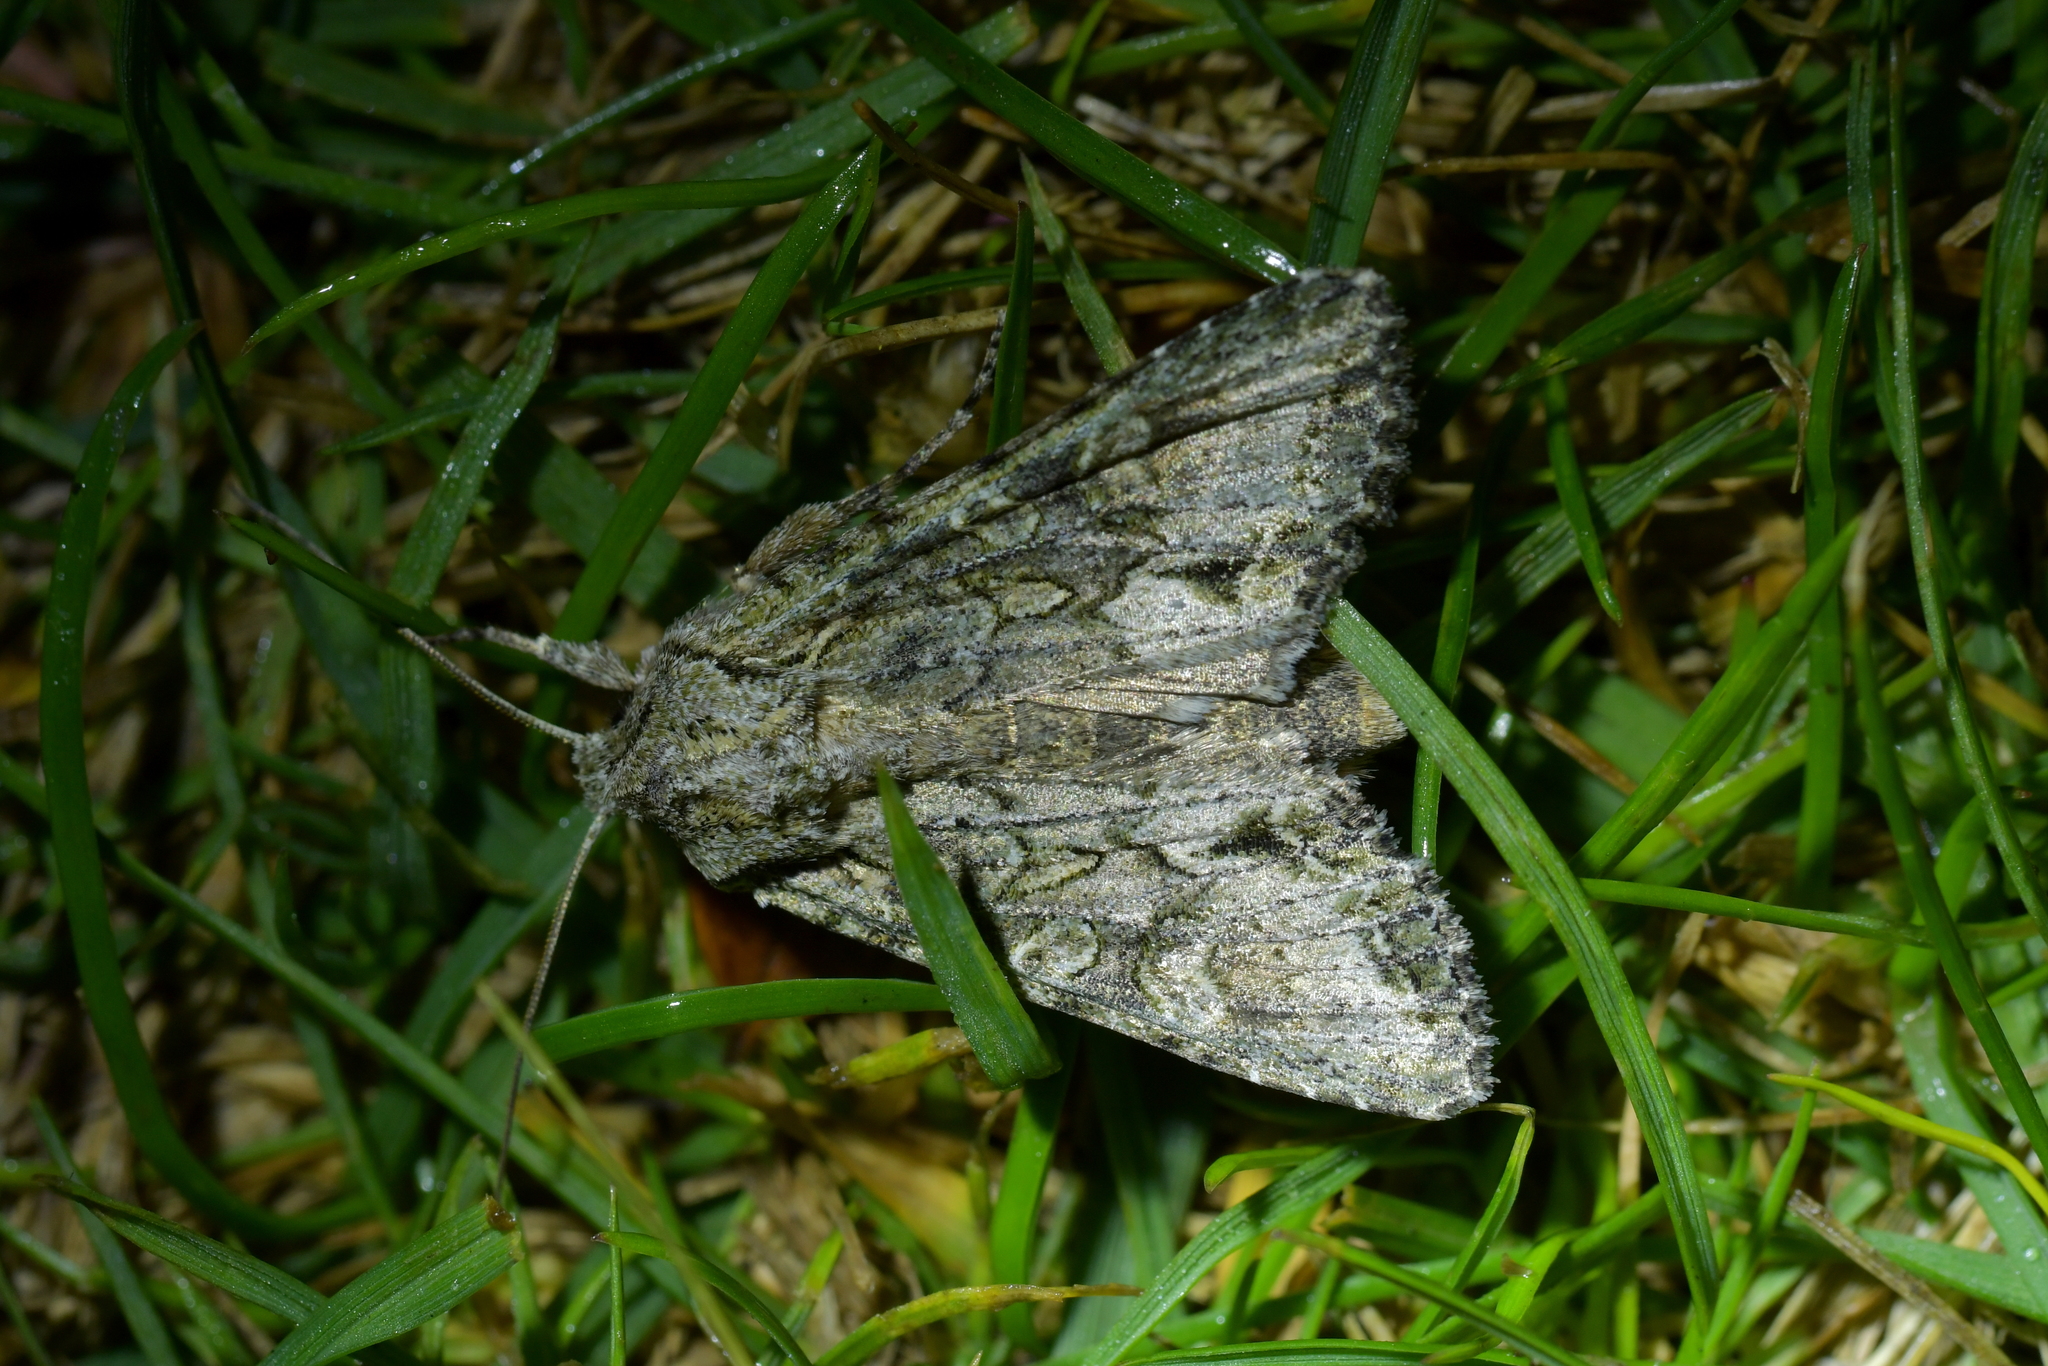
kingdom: Animalia
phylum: Arthropoda
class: Insecta
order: Lepidoptera
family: Noctuidae
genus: Ichneutica
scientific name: Ichneutica mutans
